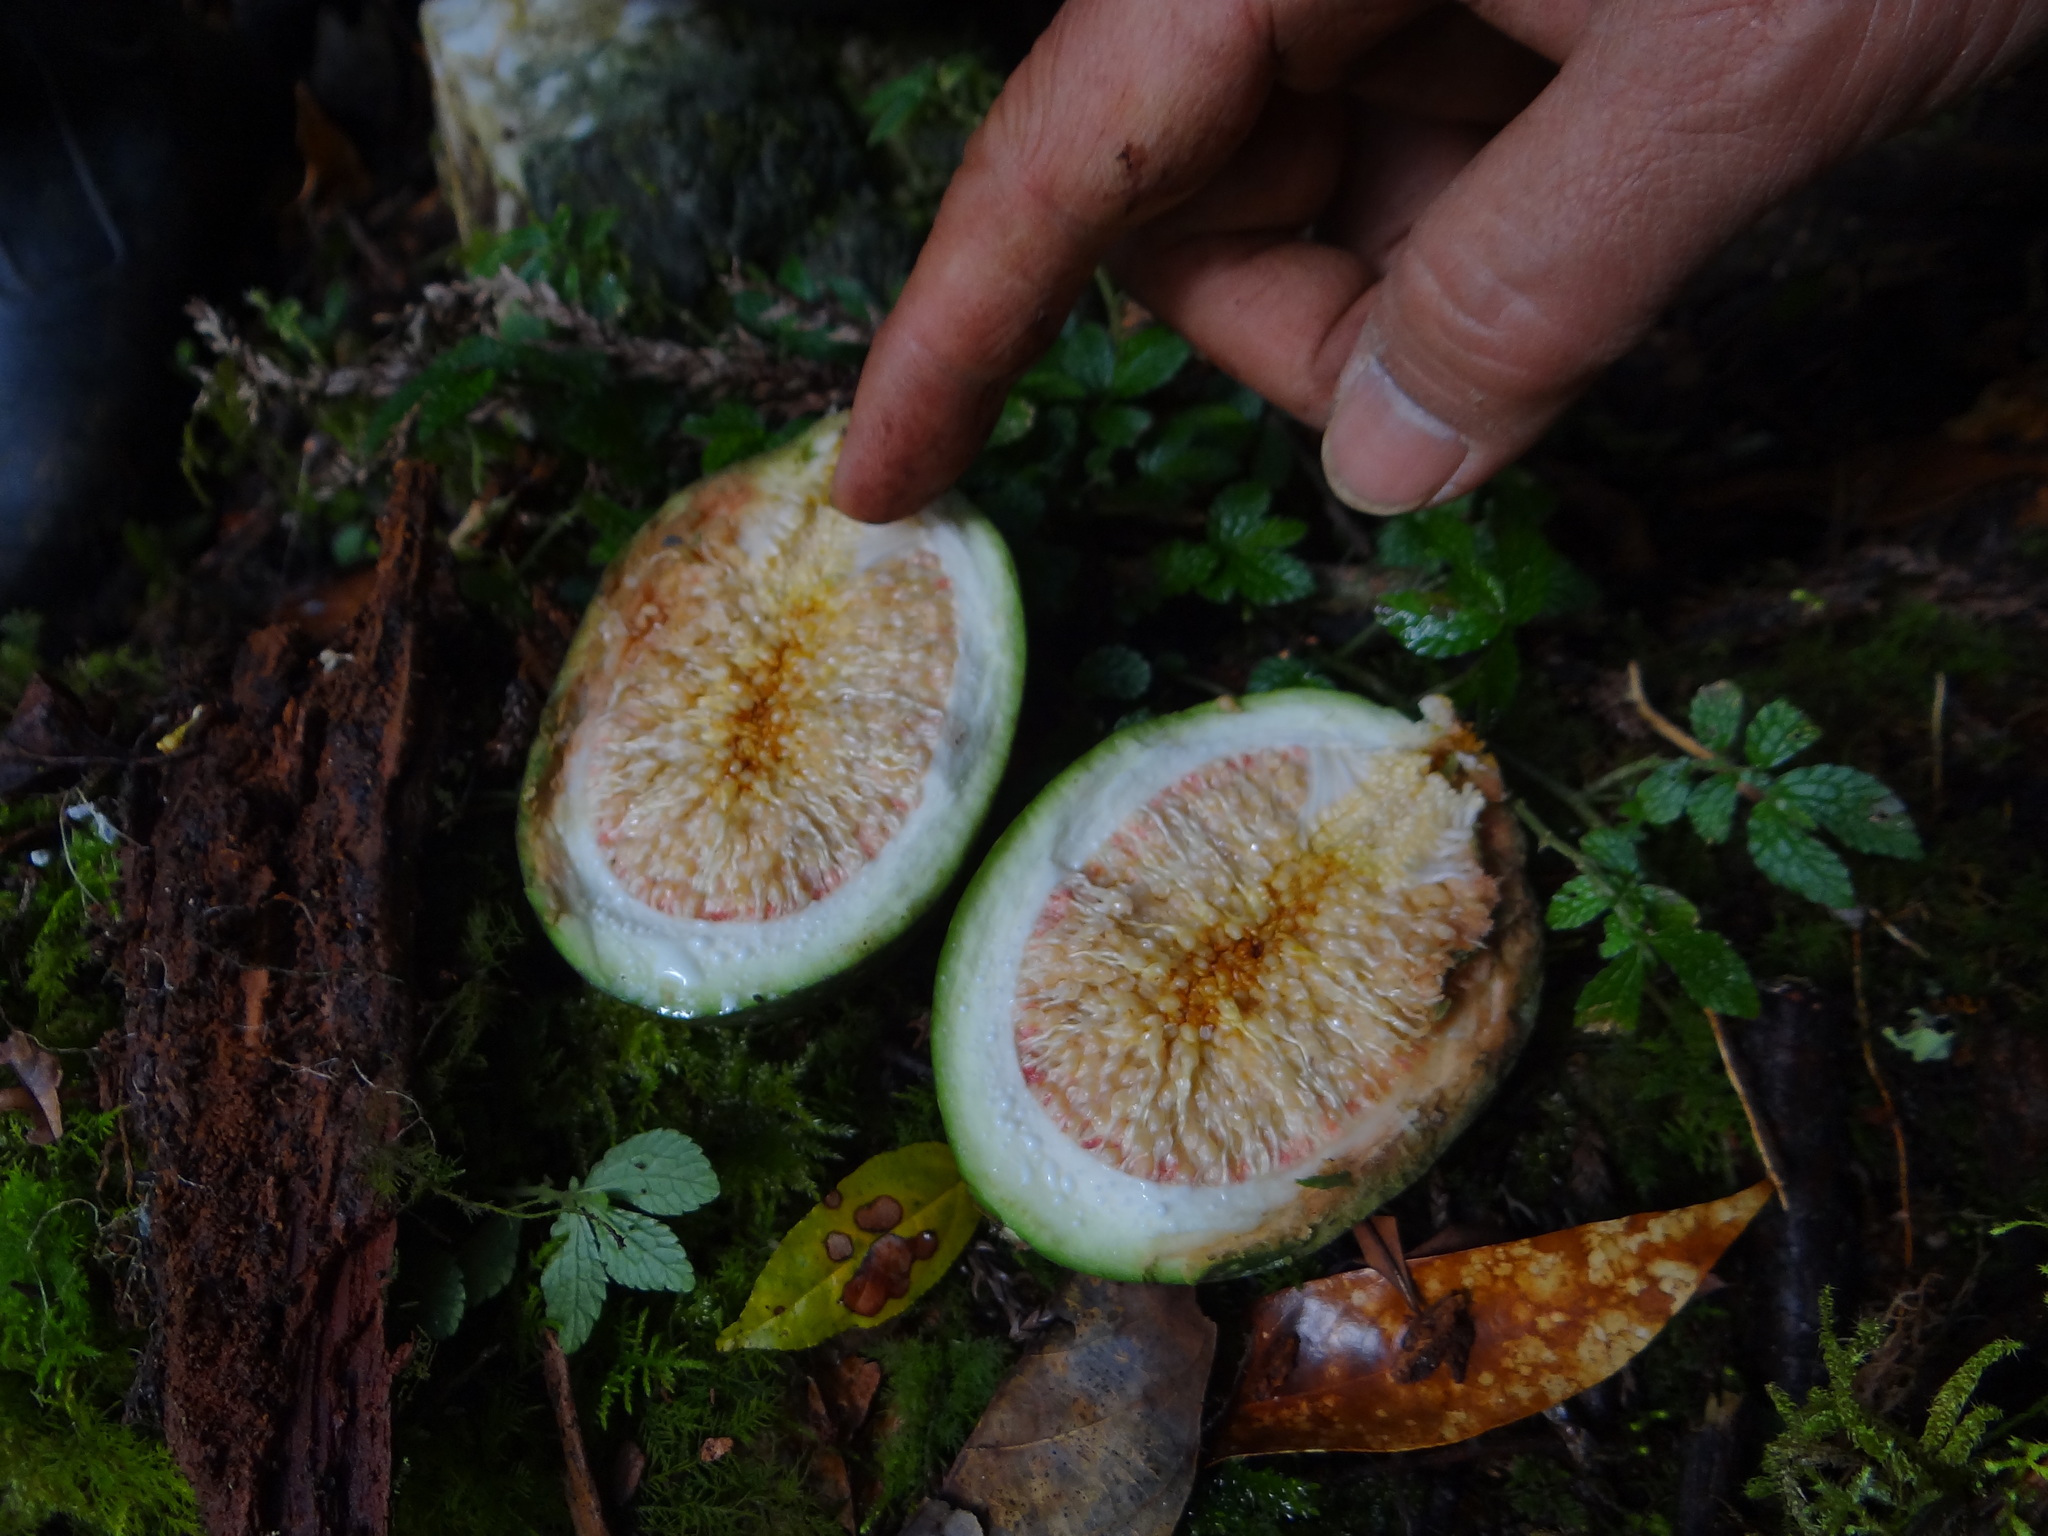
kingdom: Plantae
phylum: Tracheophyta
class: Magnoliopsida
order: Rosales
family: Moraceae
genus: Ficus
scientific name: Ficus pumila
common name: Climbingfig
